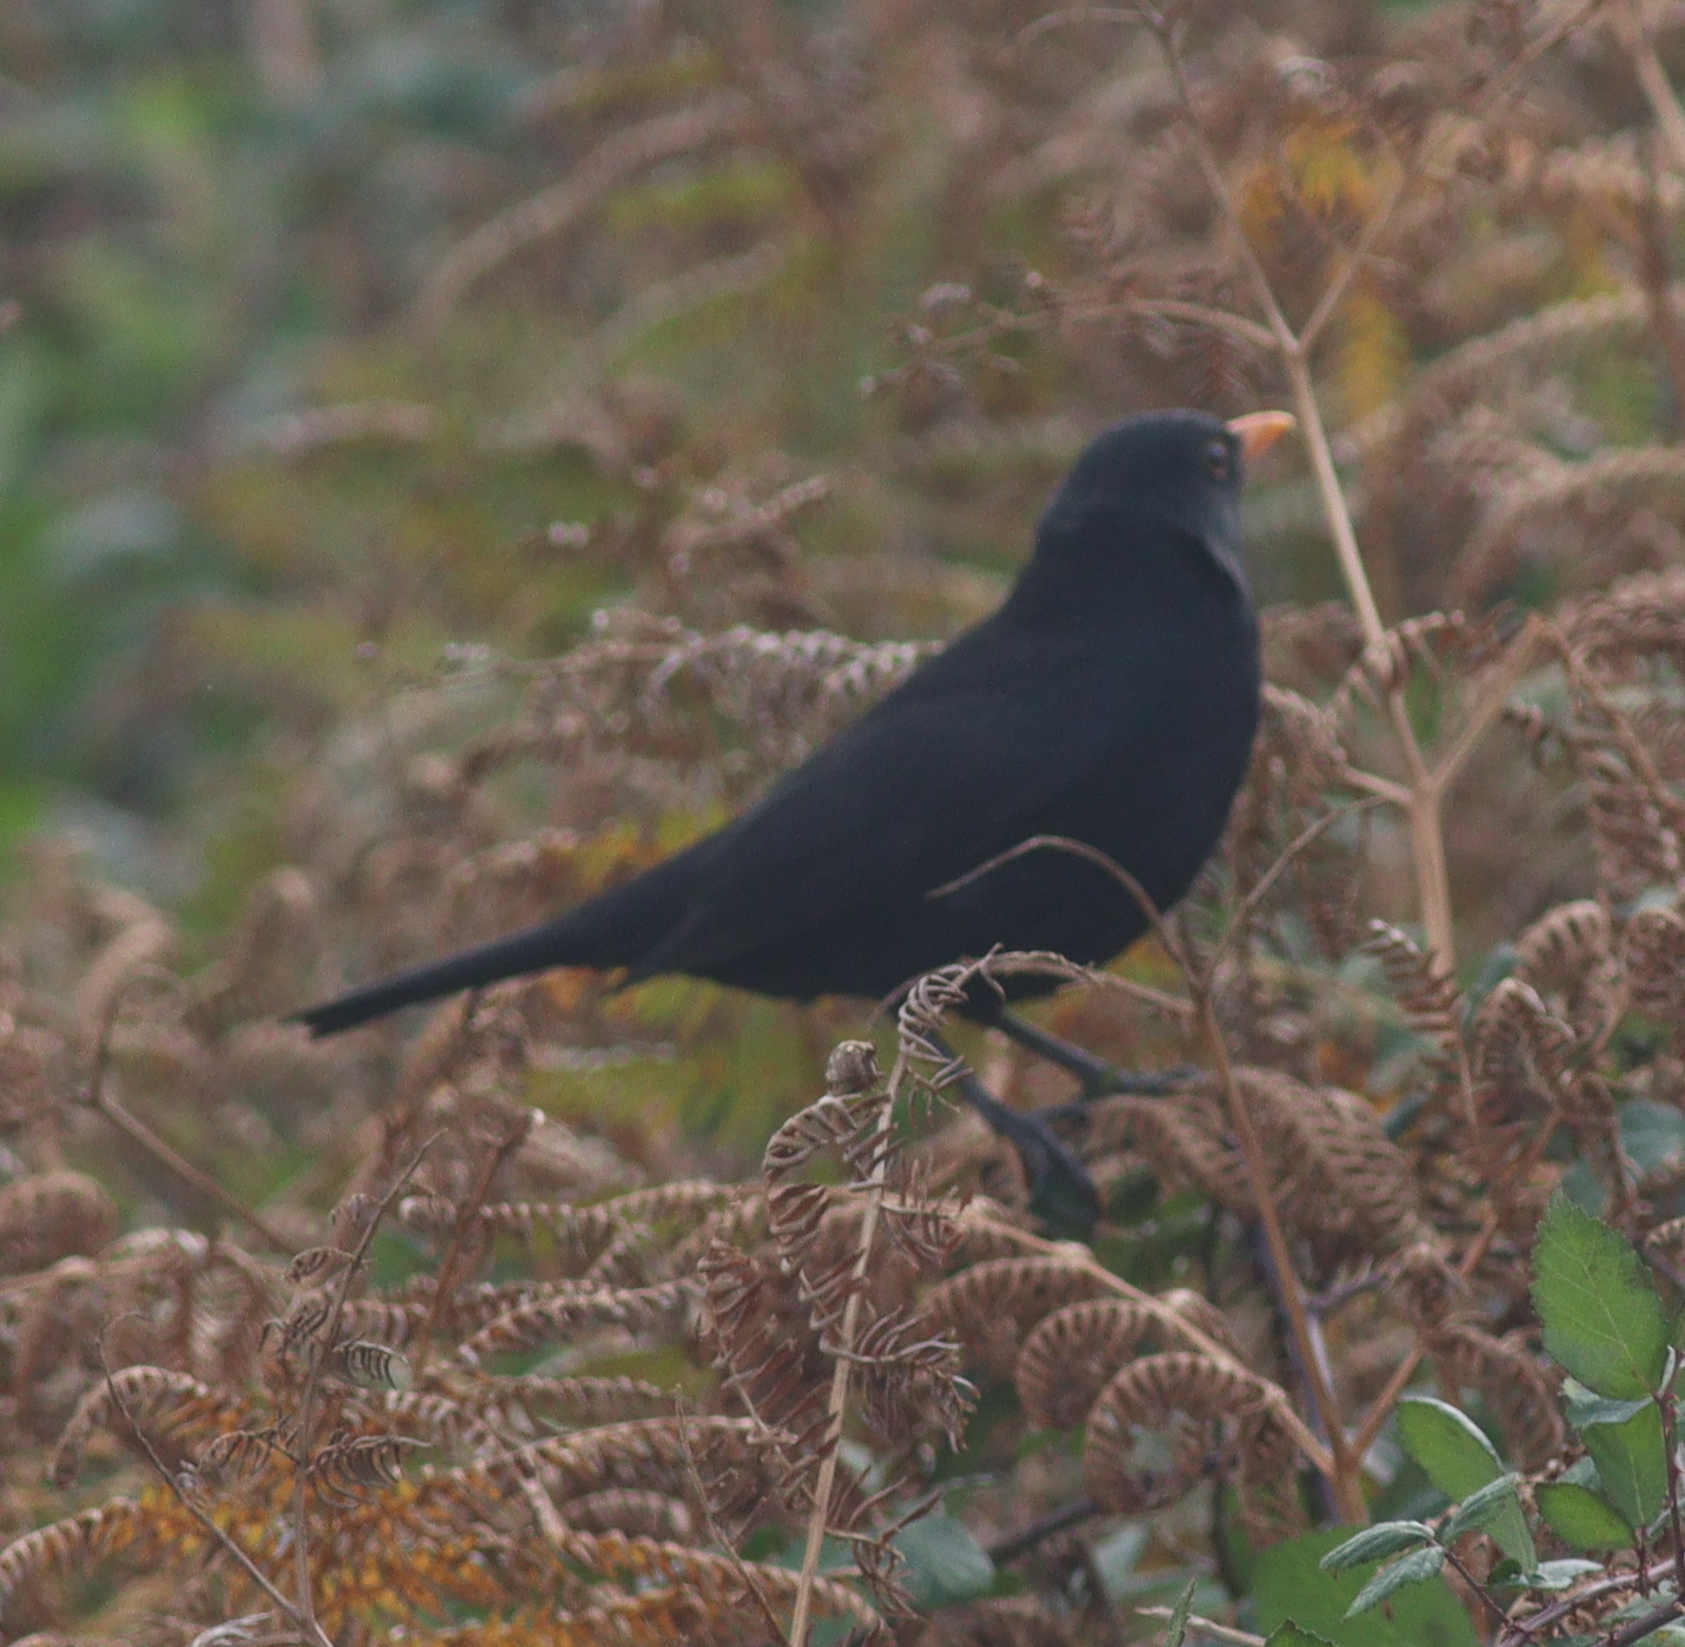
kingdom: Animalia
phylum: Chordata
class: Aves
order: Passeriformes
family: Turdidae
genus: Turdus
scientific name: Turdus merula
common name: Common blackbird
